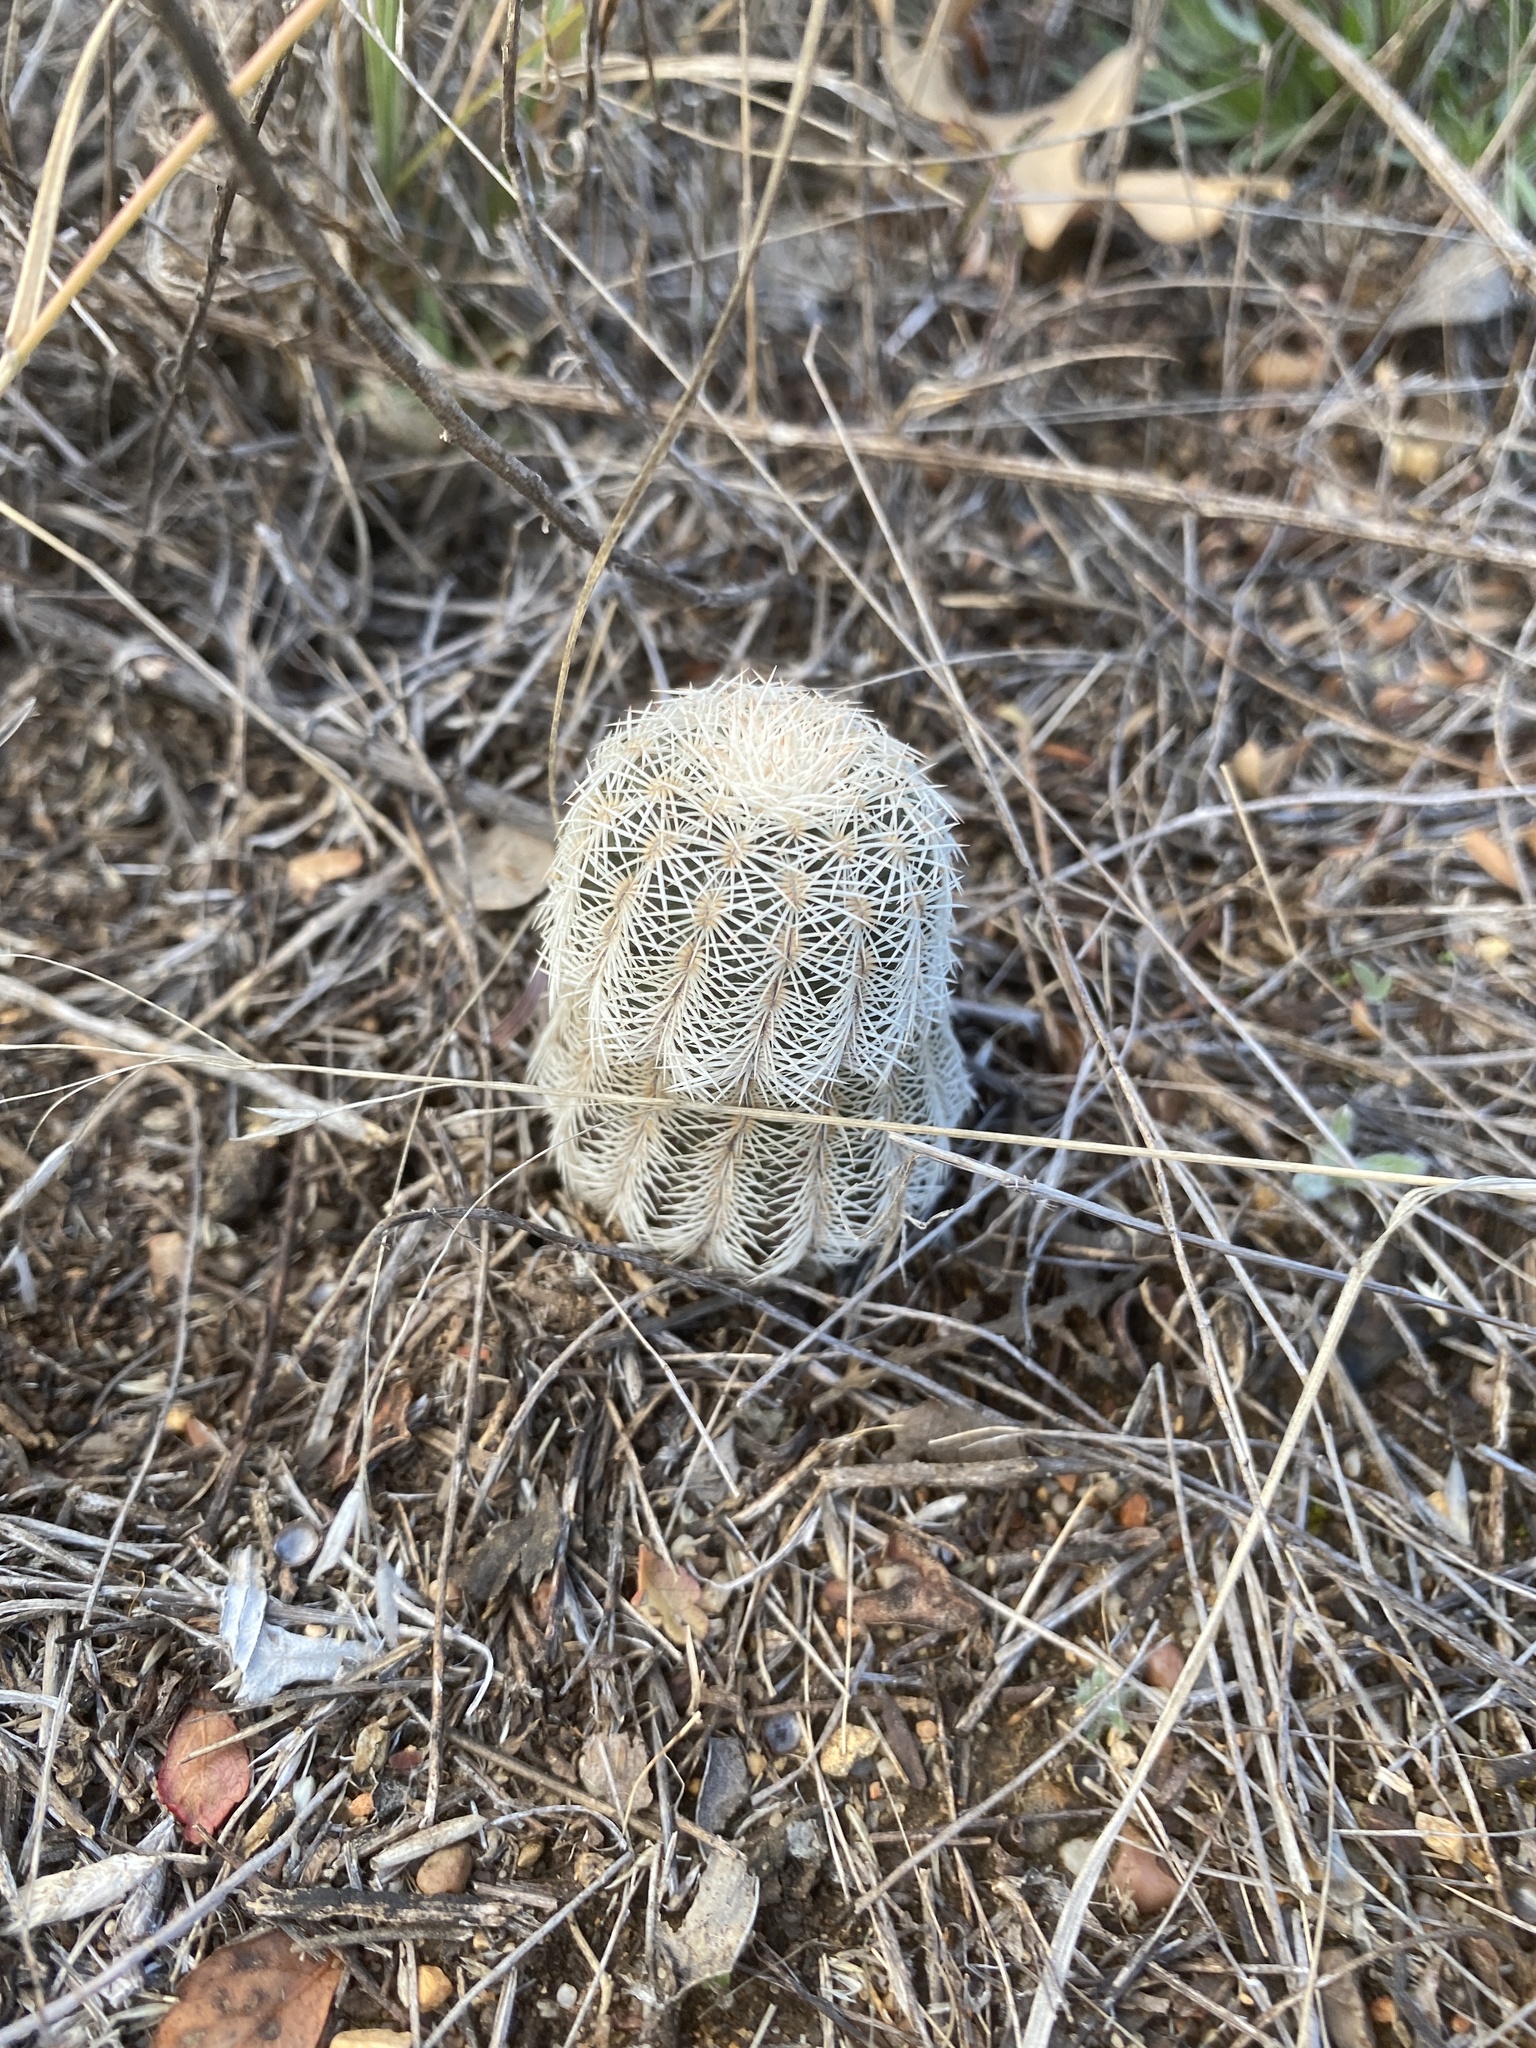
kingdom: Plantae
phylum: Tracheophyta
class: Magnoliopsida
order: Caryophyllales
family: Cactaceae
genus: Echinocereus
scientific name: Echinocereus reichenbachii
